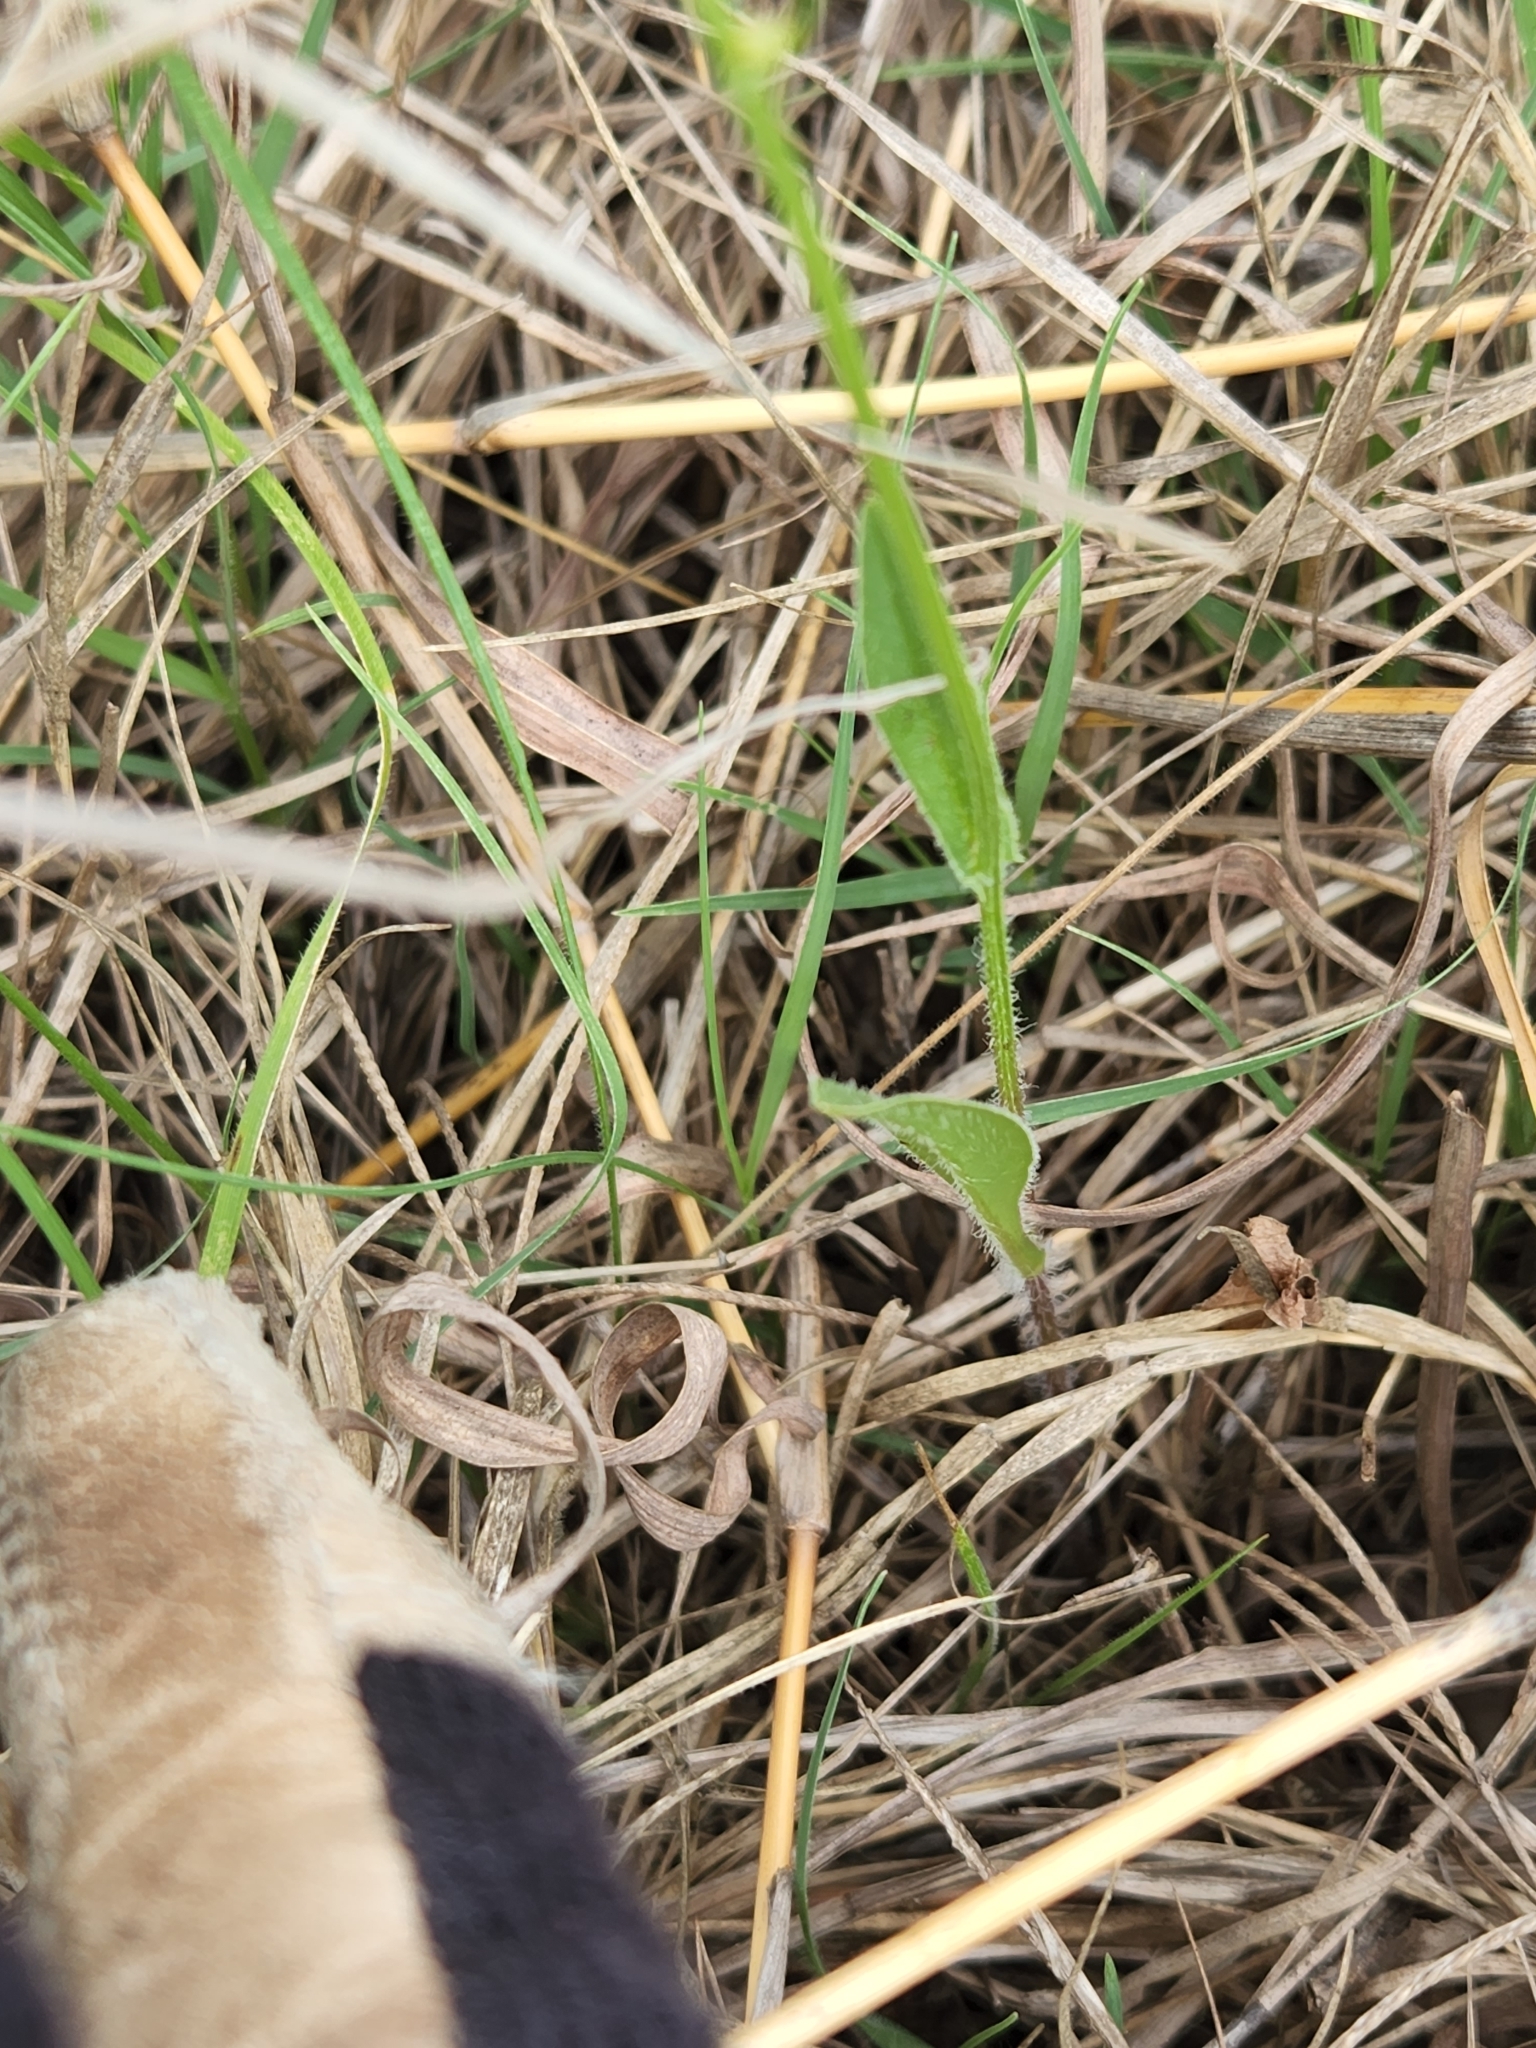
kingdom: Plantae
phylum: Tracheophyta
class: Magnoliopsida
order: Asterales
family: Asteraceae
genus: Pyrrhopappus
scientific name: Pyrrhopappus pauciflorus
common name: Texas false dandelion
